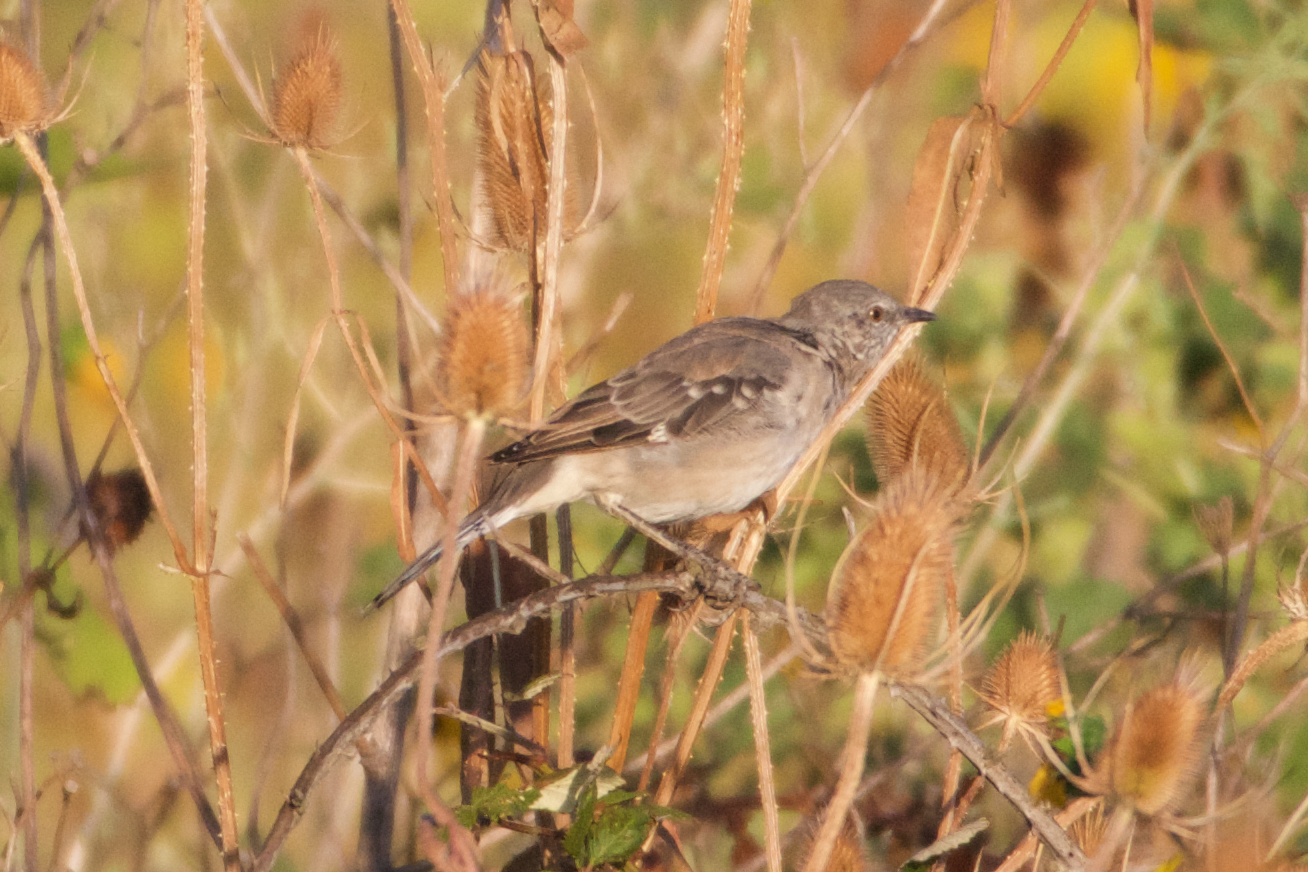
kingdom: Animalia
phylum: Chordata
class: Aves
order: Passeriformes
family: Mimidae
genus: Mimus
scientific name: Mimus polyglottos
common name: Northern mockingbird
